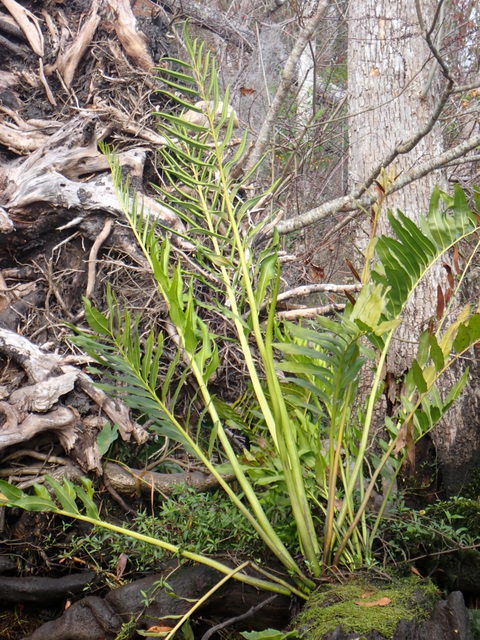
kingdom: Plantae
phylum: Tracheophyta
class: Polypodiopsida
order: Polypodiales
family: Pteridaceae
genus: Acrostichum
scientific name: Acrostichum danaeifolium
